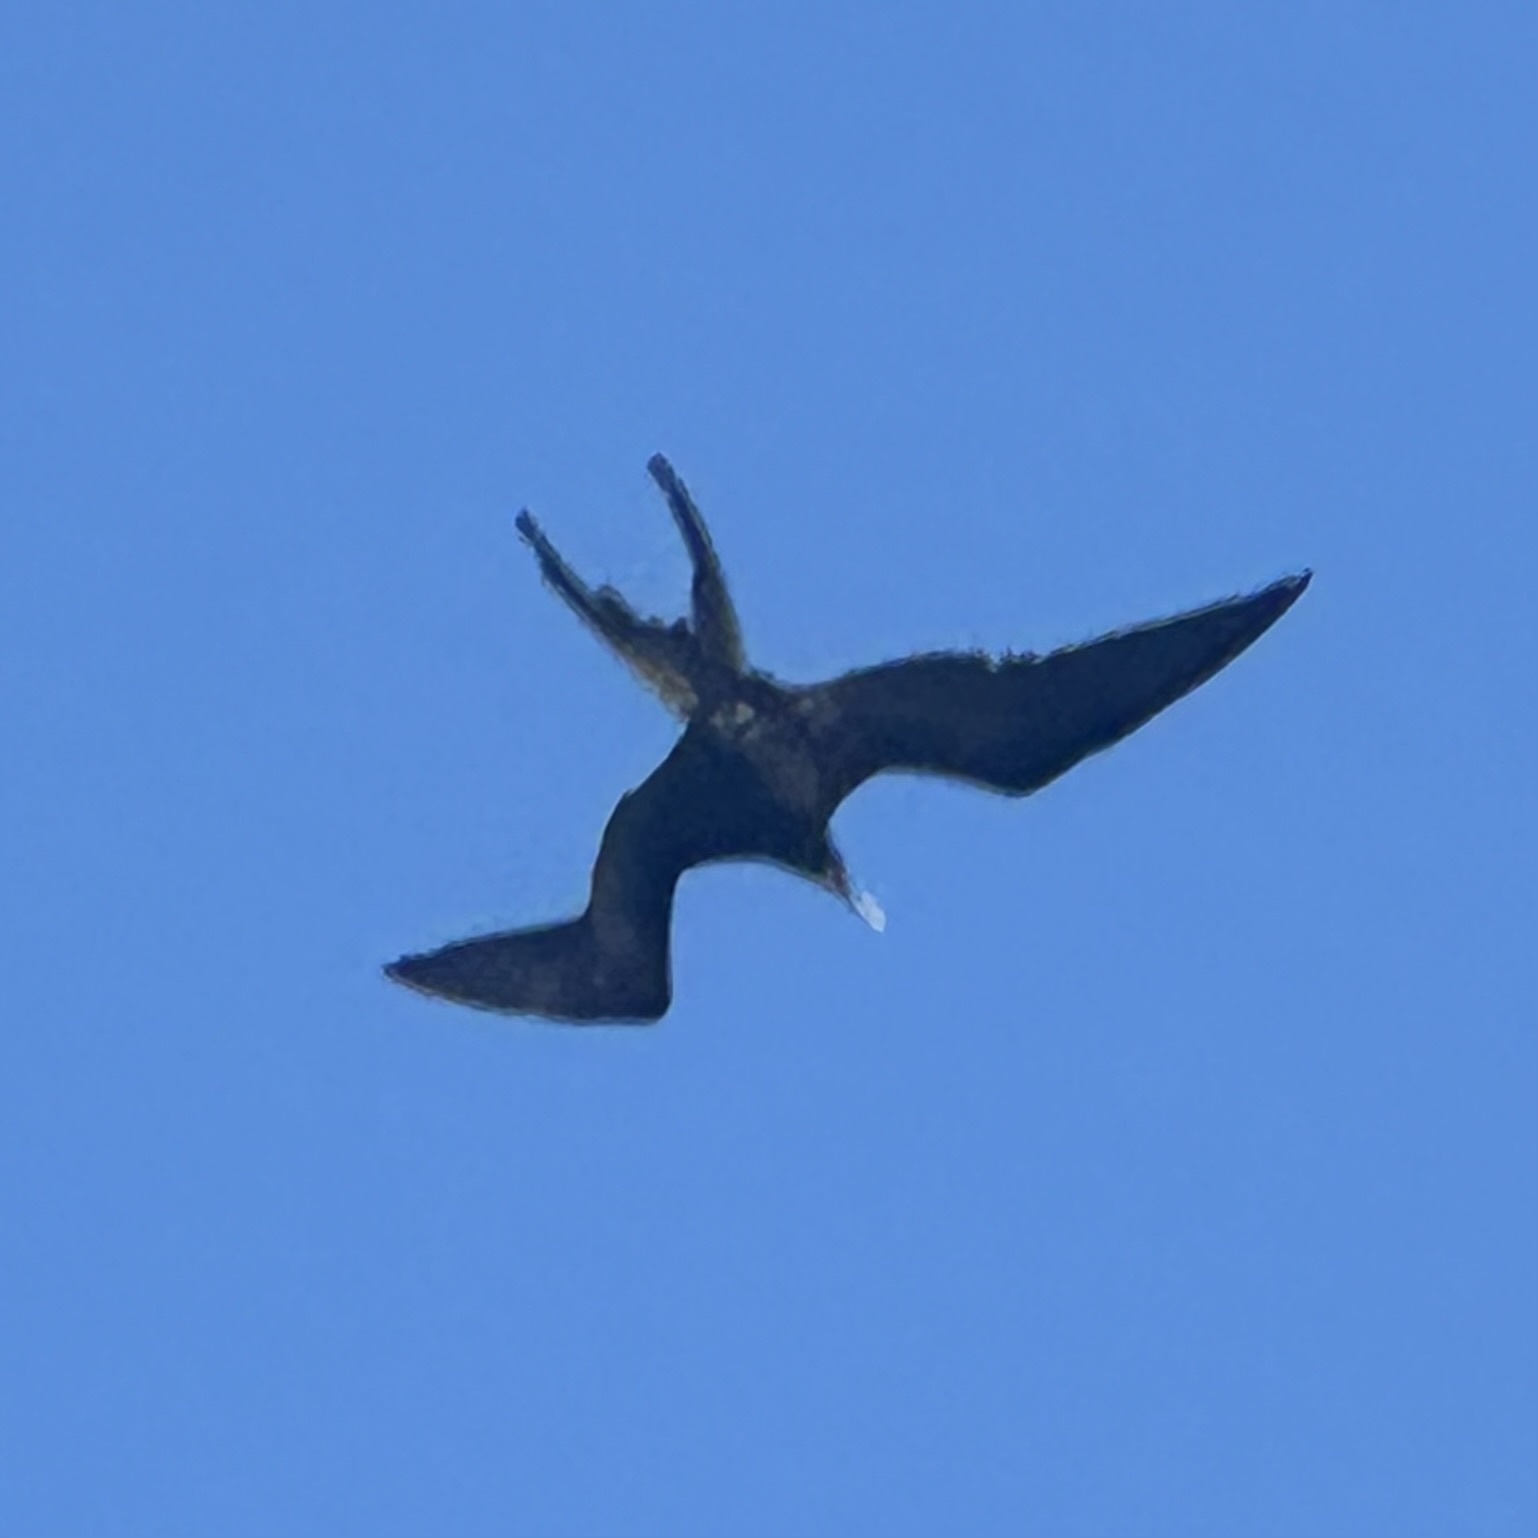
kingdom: Animalia
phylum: Chordata
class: Aves
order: Suliformes
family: Fregatidae
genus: Fregata
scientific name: Fregata magnificens
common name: Magnificent frigatebird
